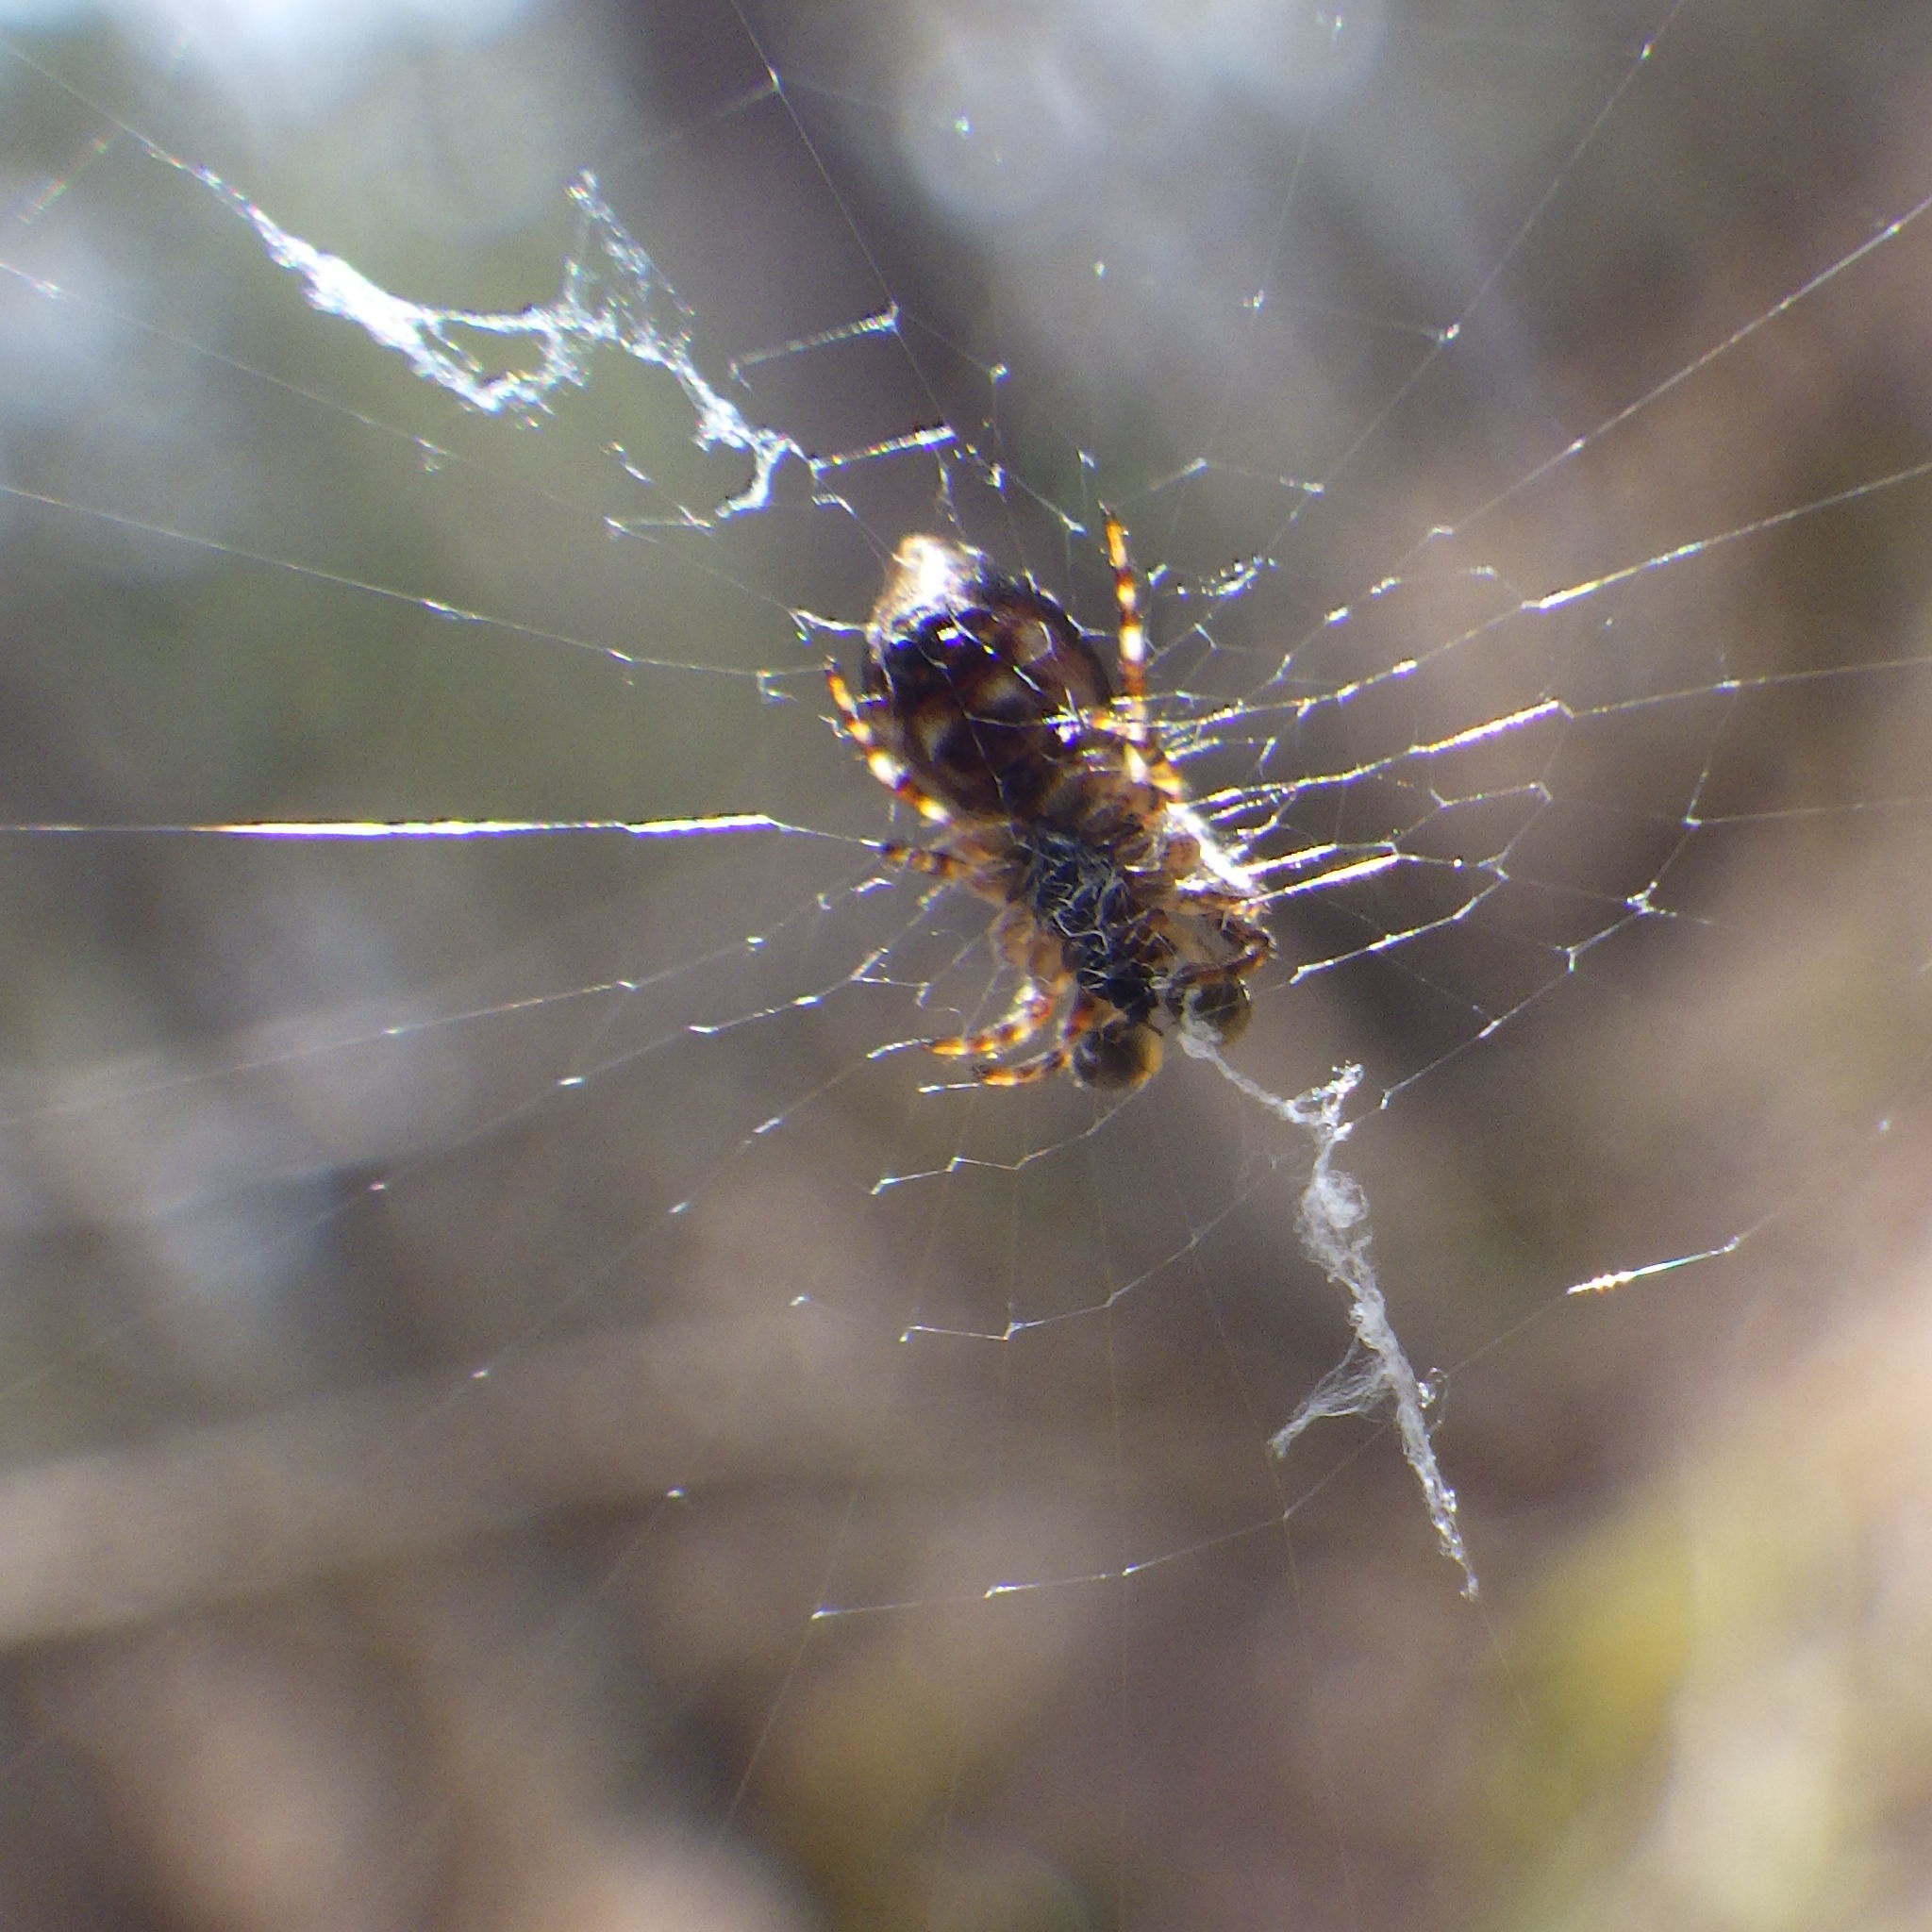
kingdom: Animalia
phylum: Arthropoda
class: Arachnida
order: Araneae
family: Araneidae
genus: Cyclosa
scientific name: Cyclosa conica
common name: Conical trashline orbweaver
